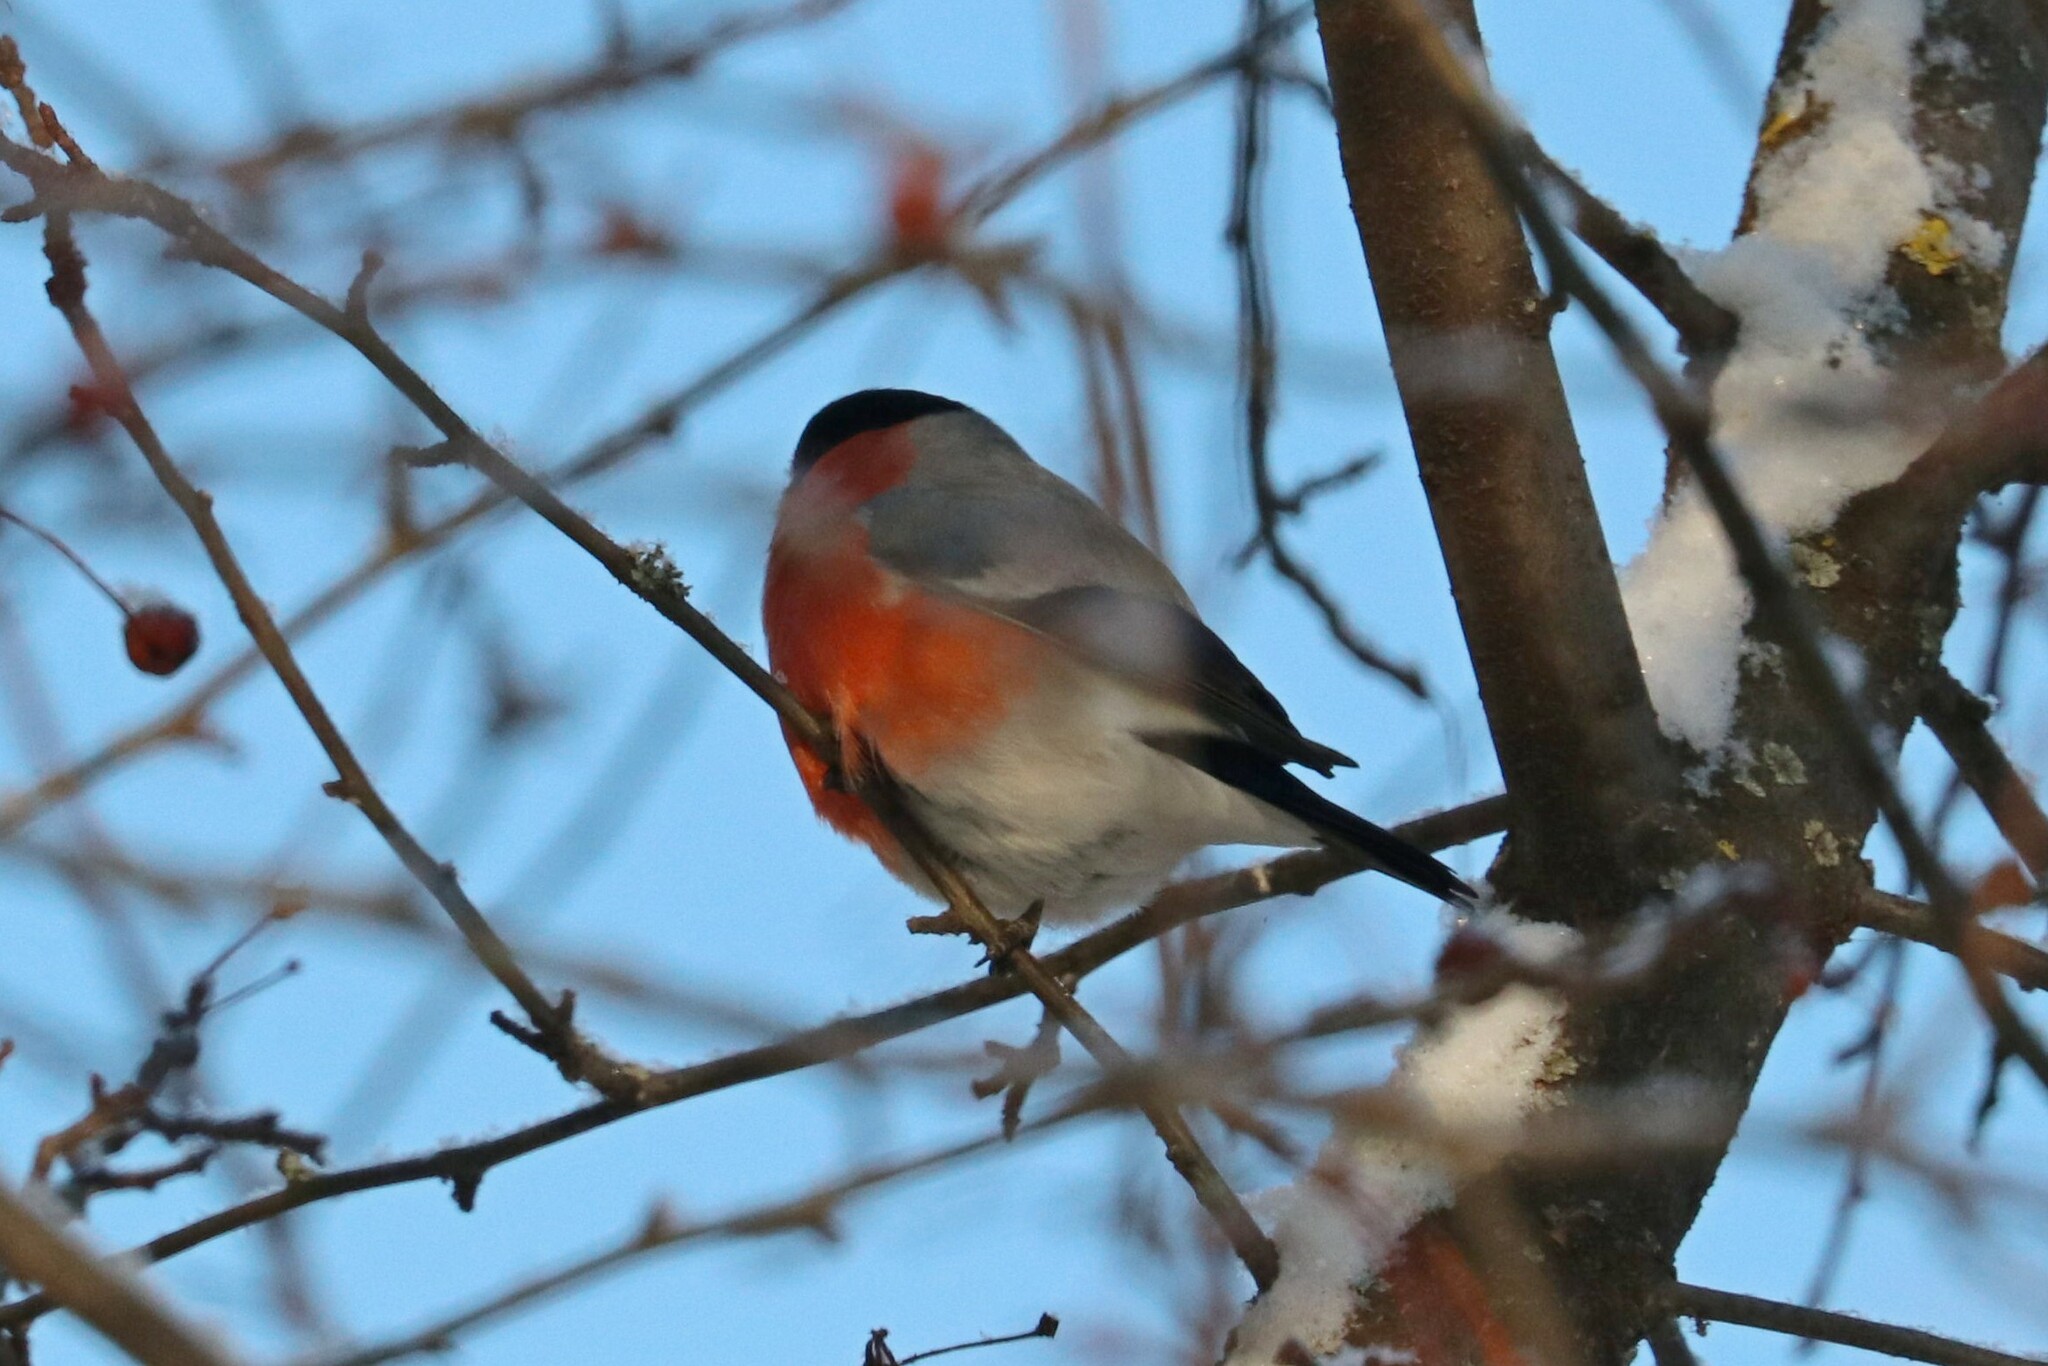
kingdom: Animalia
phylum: Chordata
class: Aves
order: Passeriformes
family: Fringillidae
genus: Pyrrhula
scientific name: Pyrrhula pyrrhula
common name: Eurasian bullfinch
